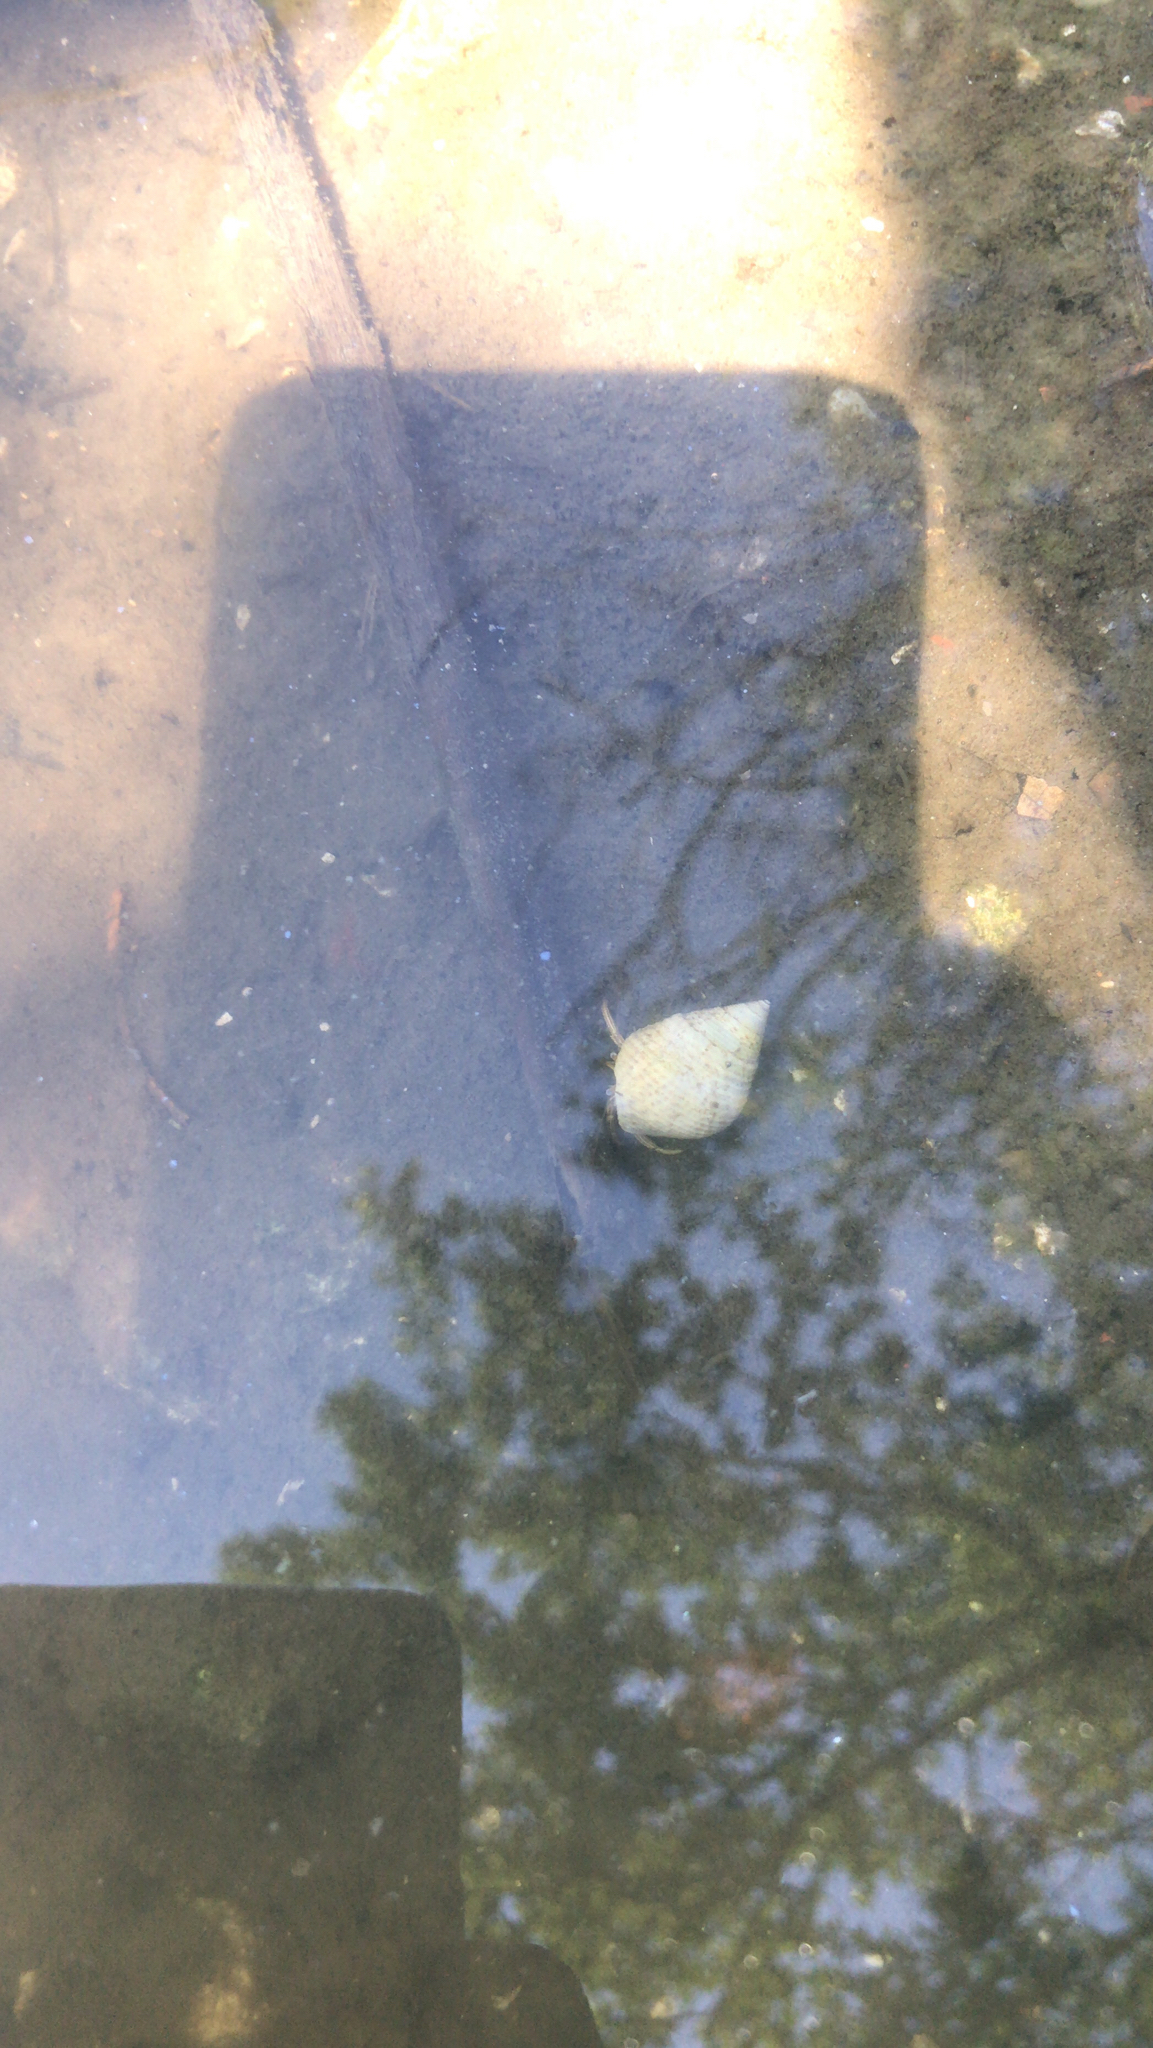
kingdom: Animalia
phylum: Mollusca
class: Gastropoda
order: Littorinimorpha
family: Littorinidae
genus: Littoraria
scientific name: Littoraria irrorata
